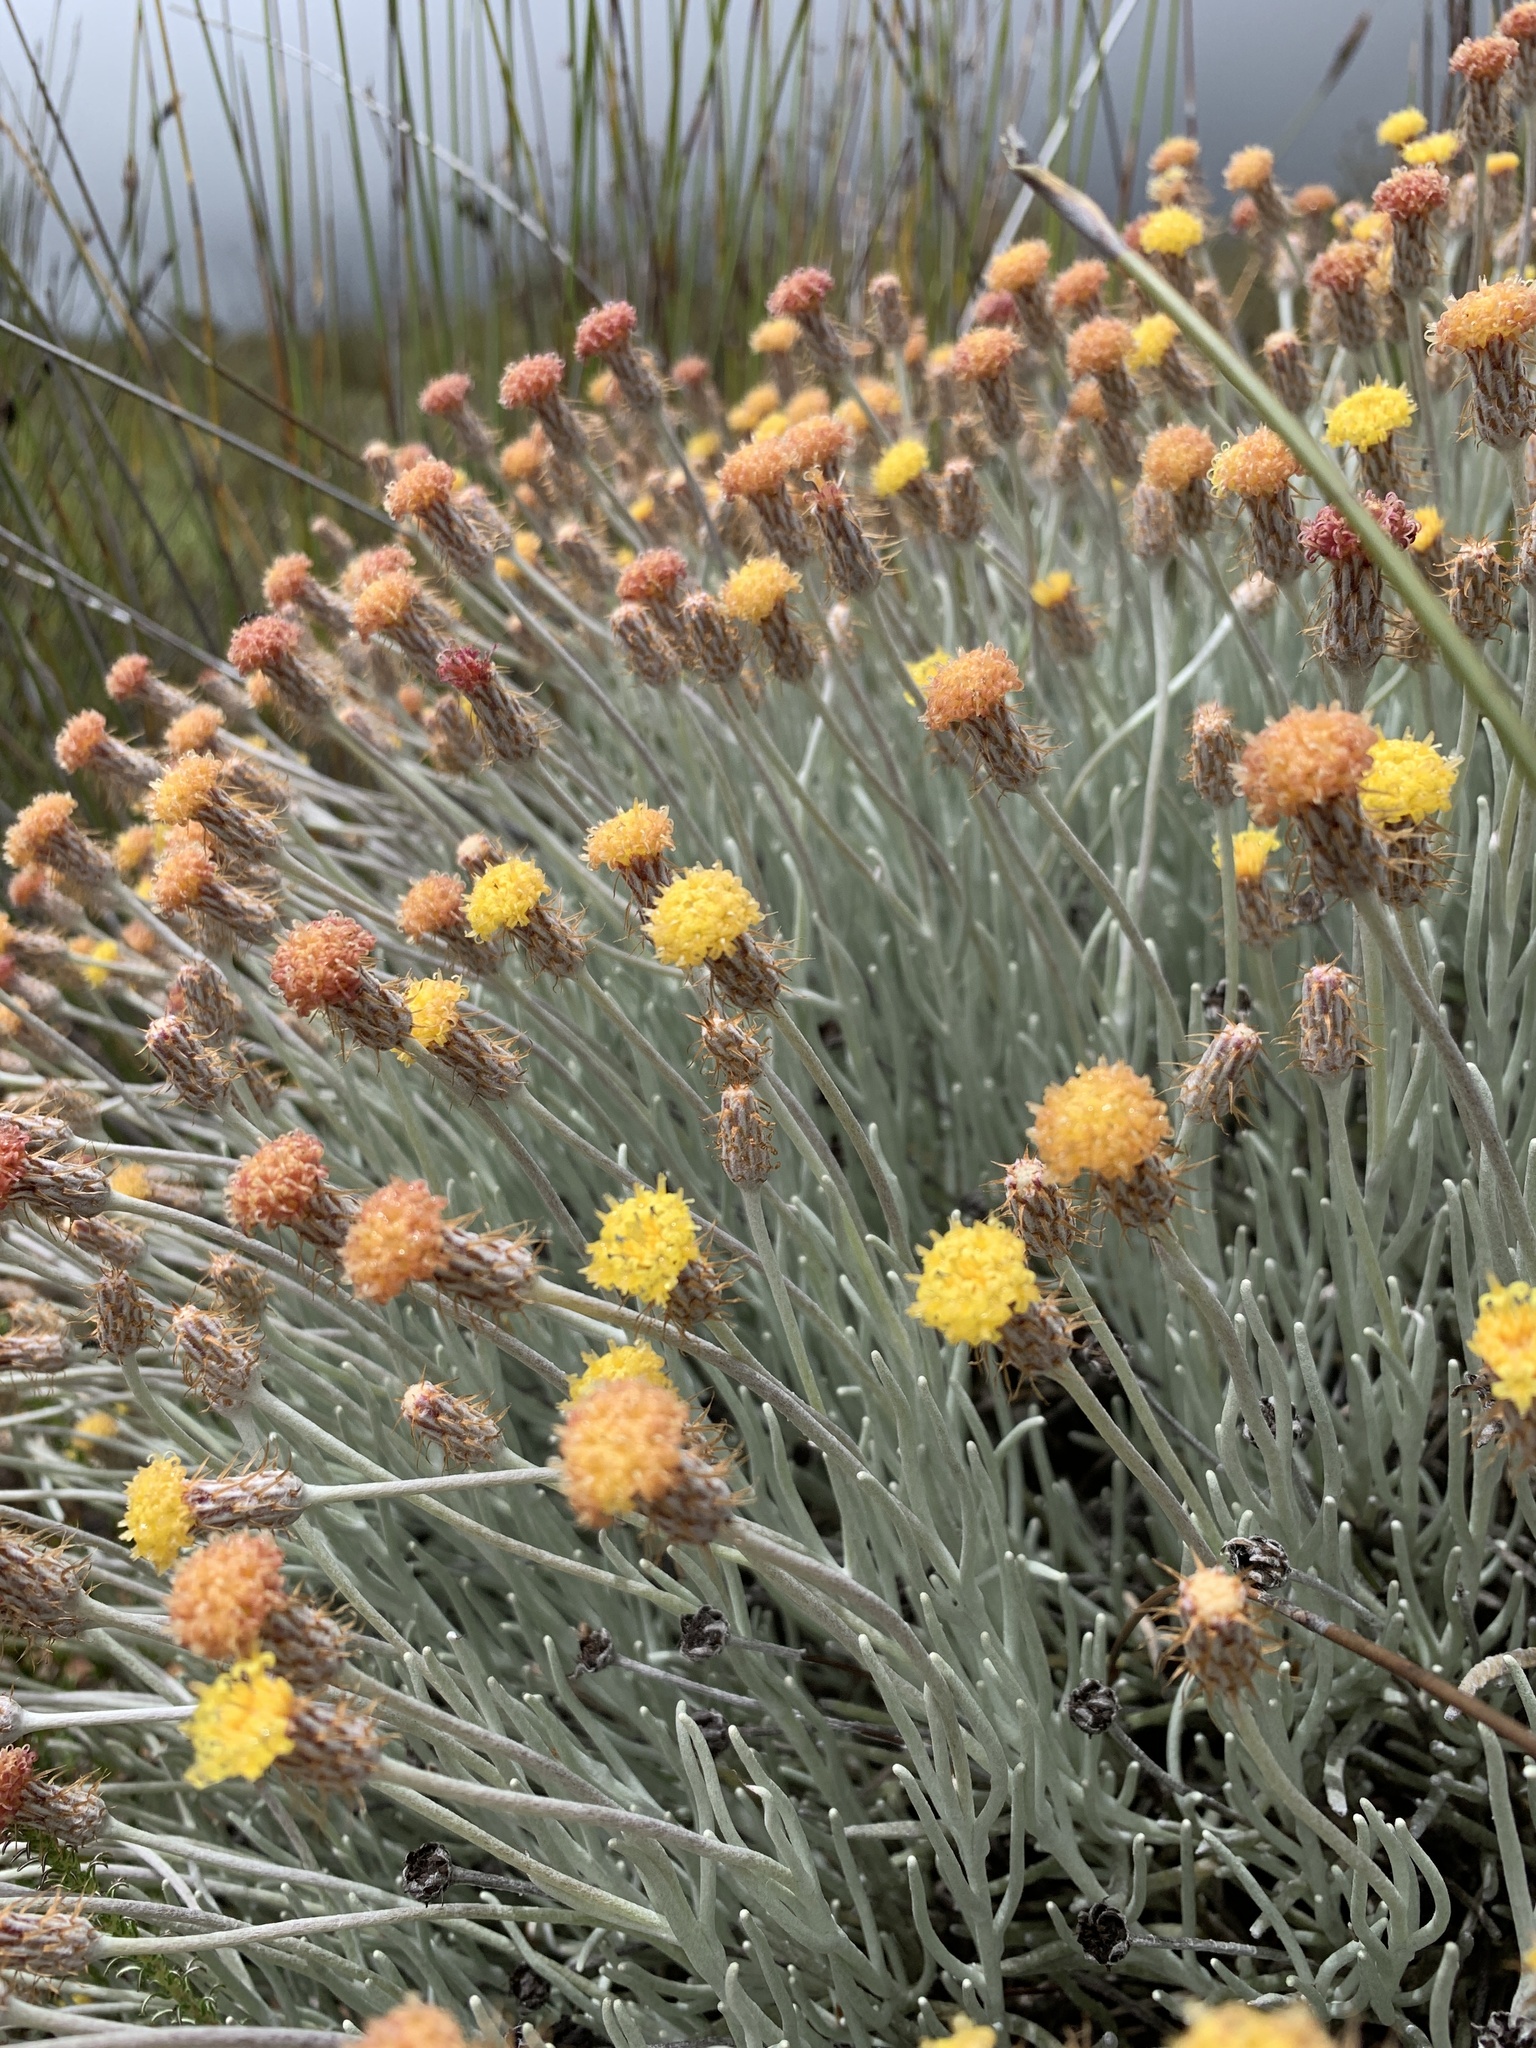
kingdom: Plantae
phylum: Tracheophyta
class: Magnoliopsida
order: Asterales
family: Asteraceae
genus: Syncarpha
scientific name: Syncarpha gnaphaloides
